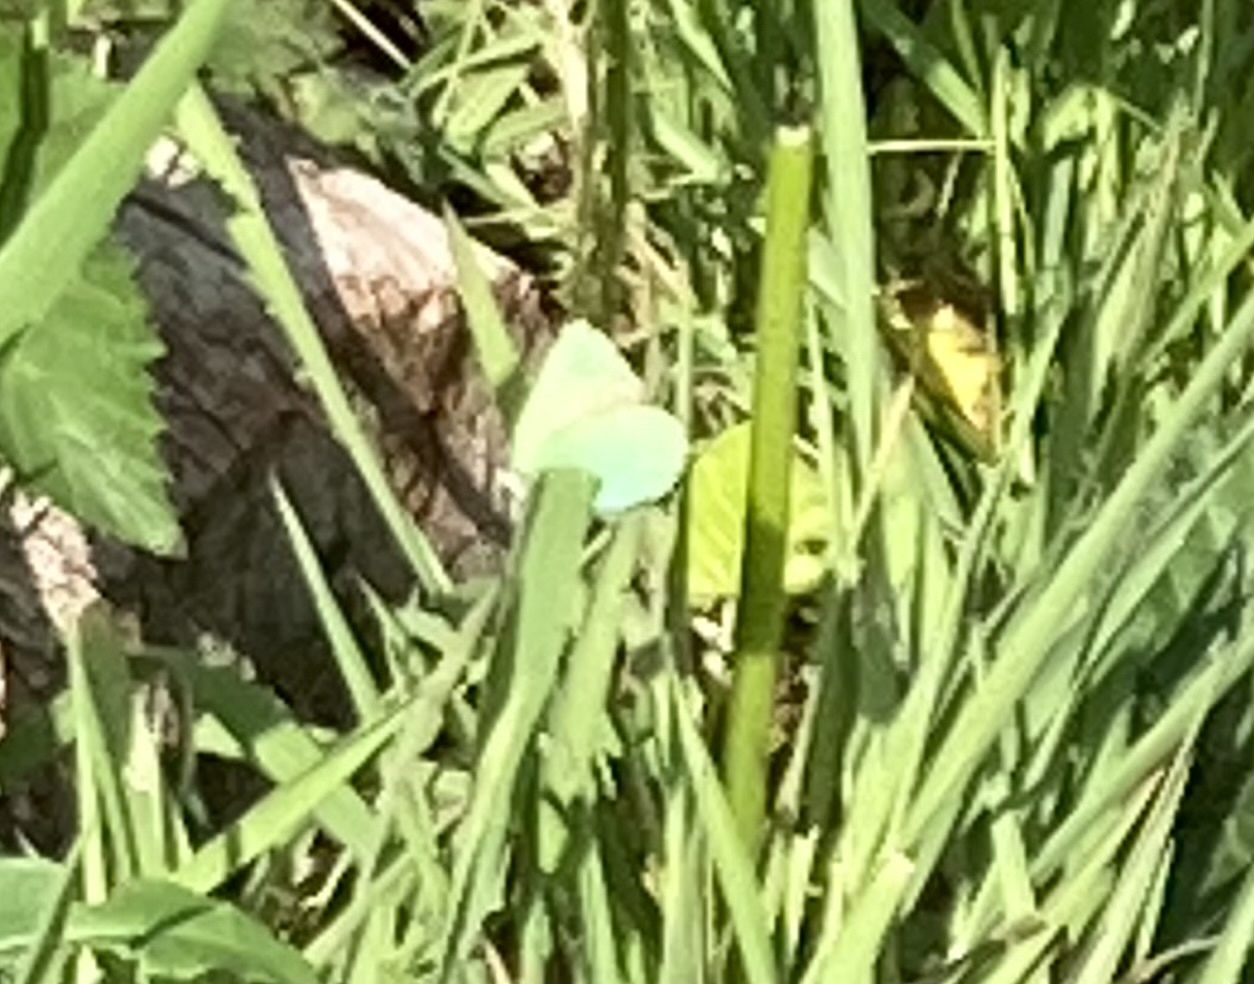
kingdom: Animalia
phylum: Arthropoda
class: Insecta
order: Lepidoptera
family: Lycaenidae
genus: Callophrys
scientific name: Callophrys rubi
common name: Green hairstreak
